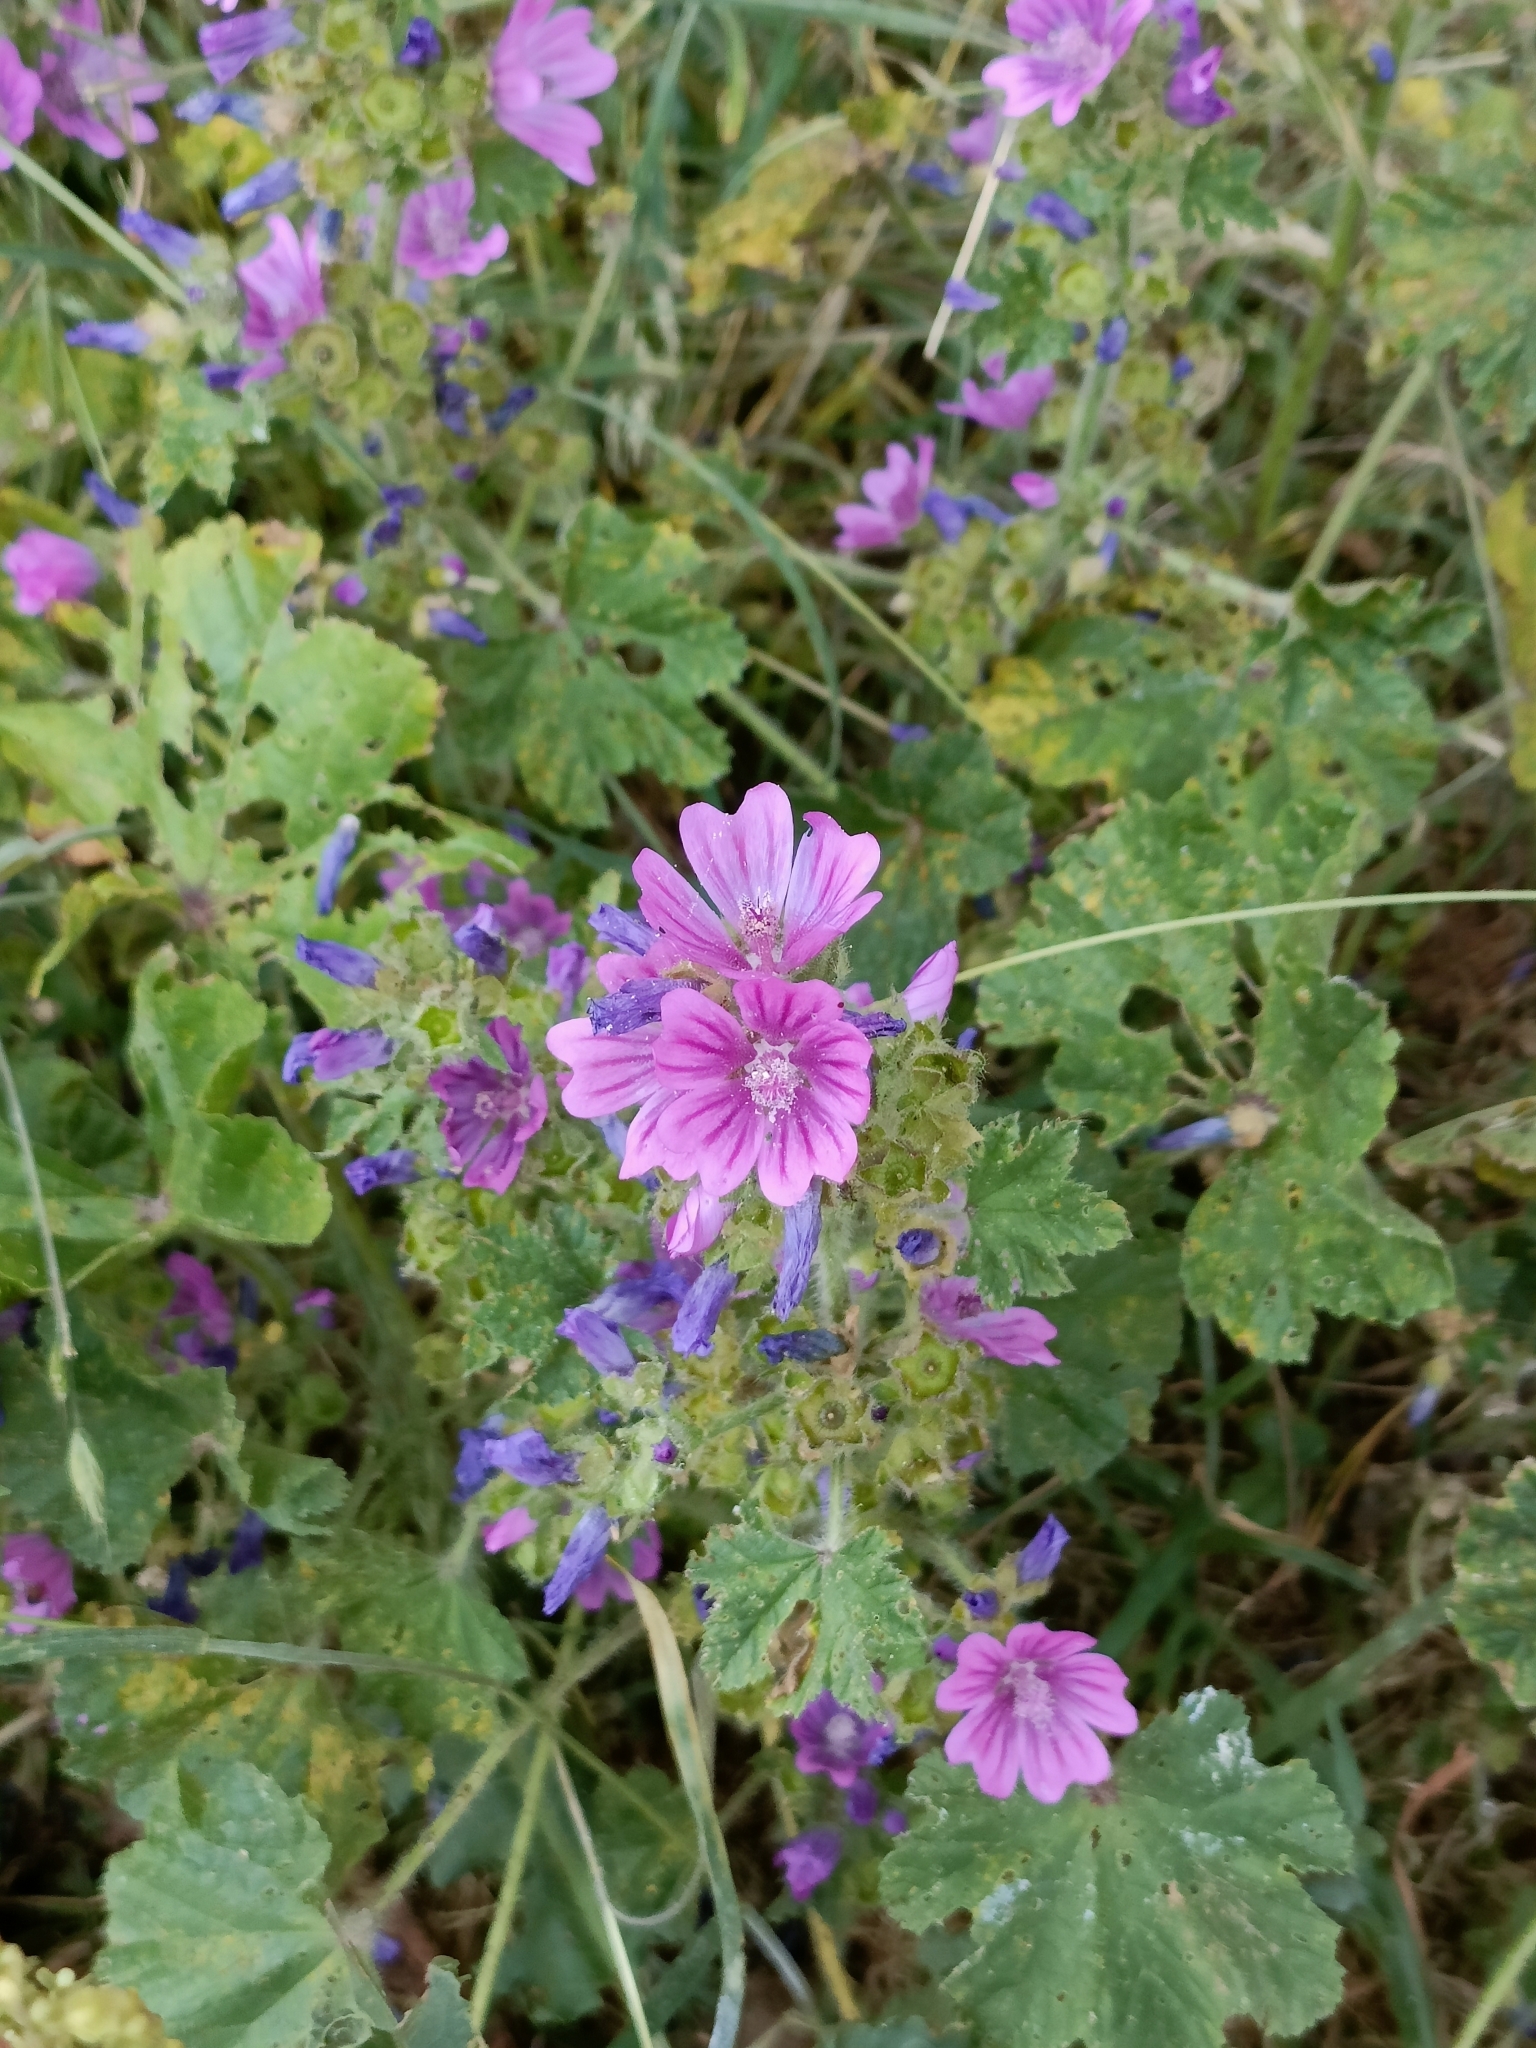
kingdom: Plantae
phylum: Tracheophyta
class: Magnoliopsida
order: Malvales
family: Malvaceae
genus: Malva
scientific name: Malva sylvestris
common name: Common mallow
